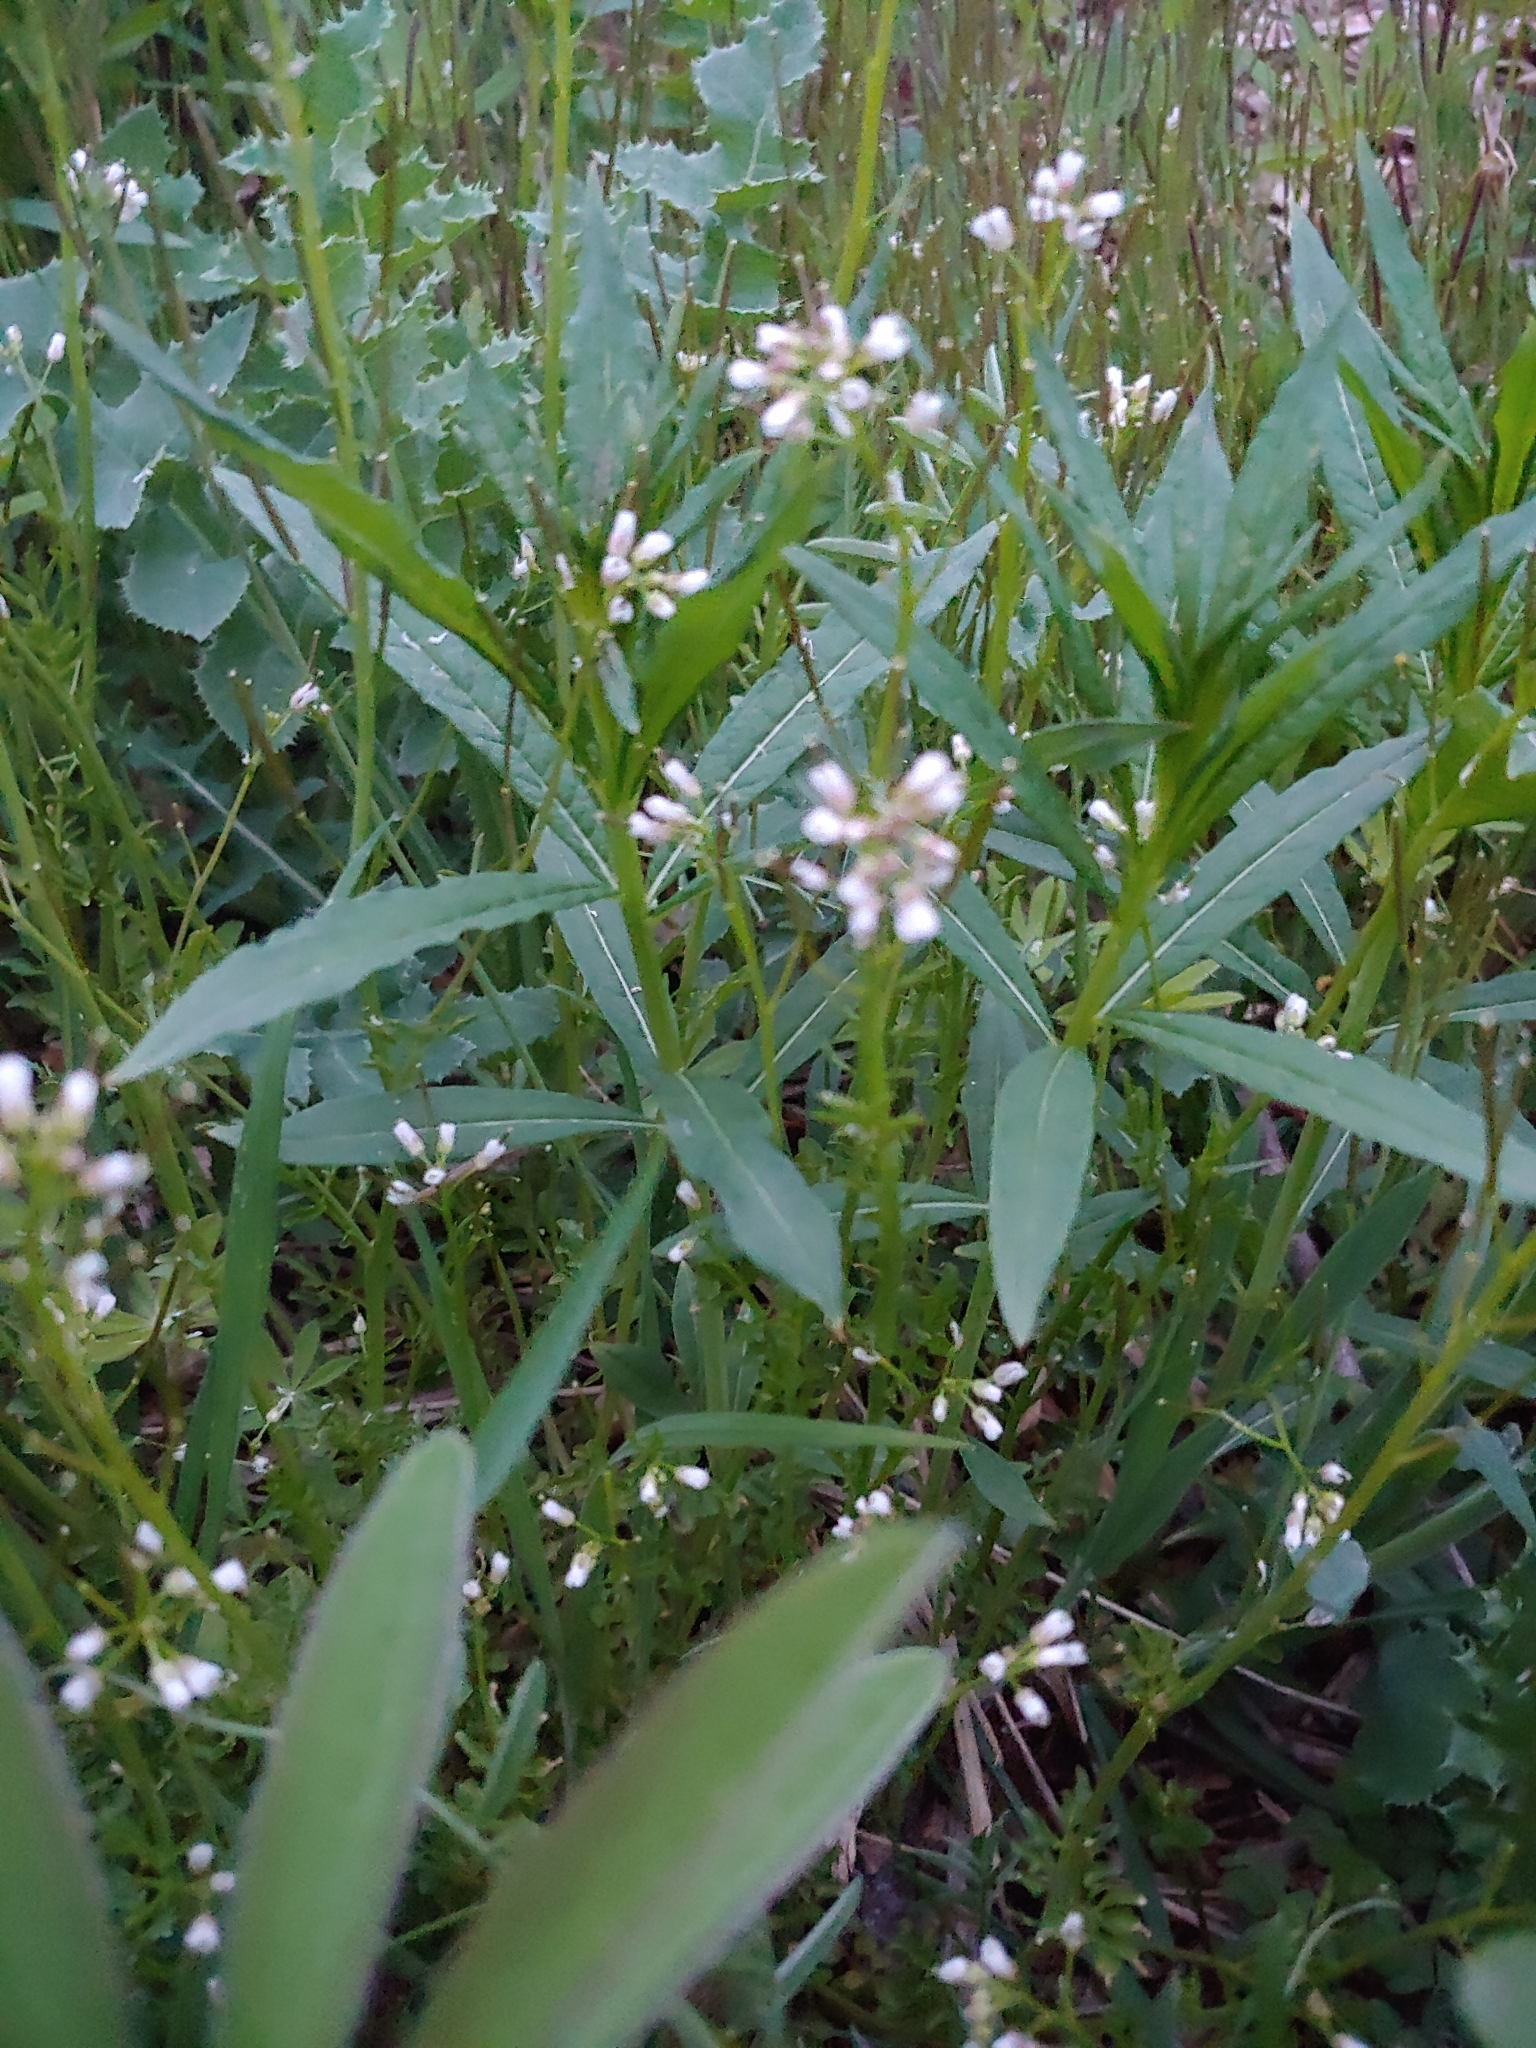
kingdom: Plantae
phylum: Tracheophyta
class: Magnoliopsida
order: Brassicales
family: Brassicaceae
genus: Cardamine
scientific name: Cardamine flexuosa
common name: Woodland bittercress
